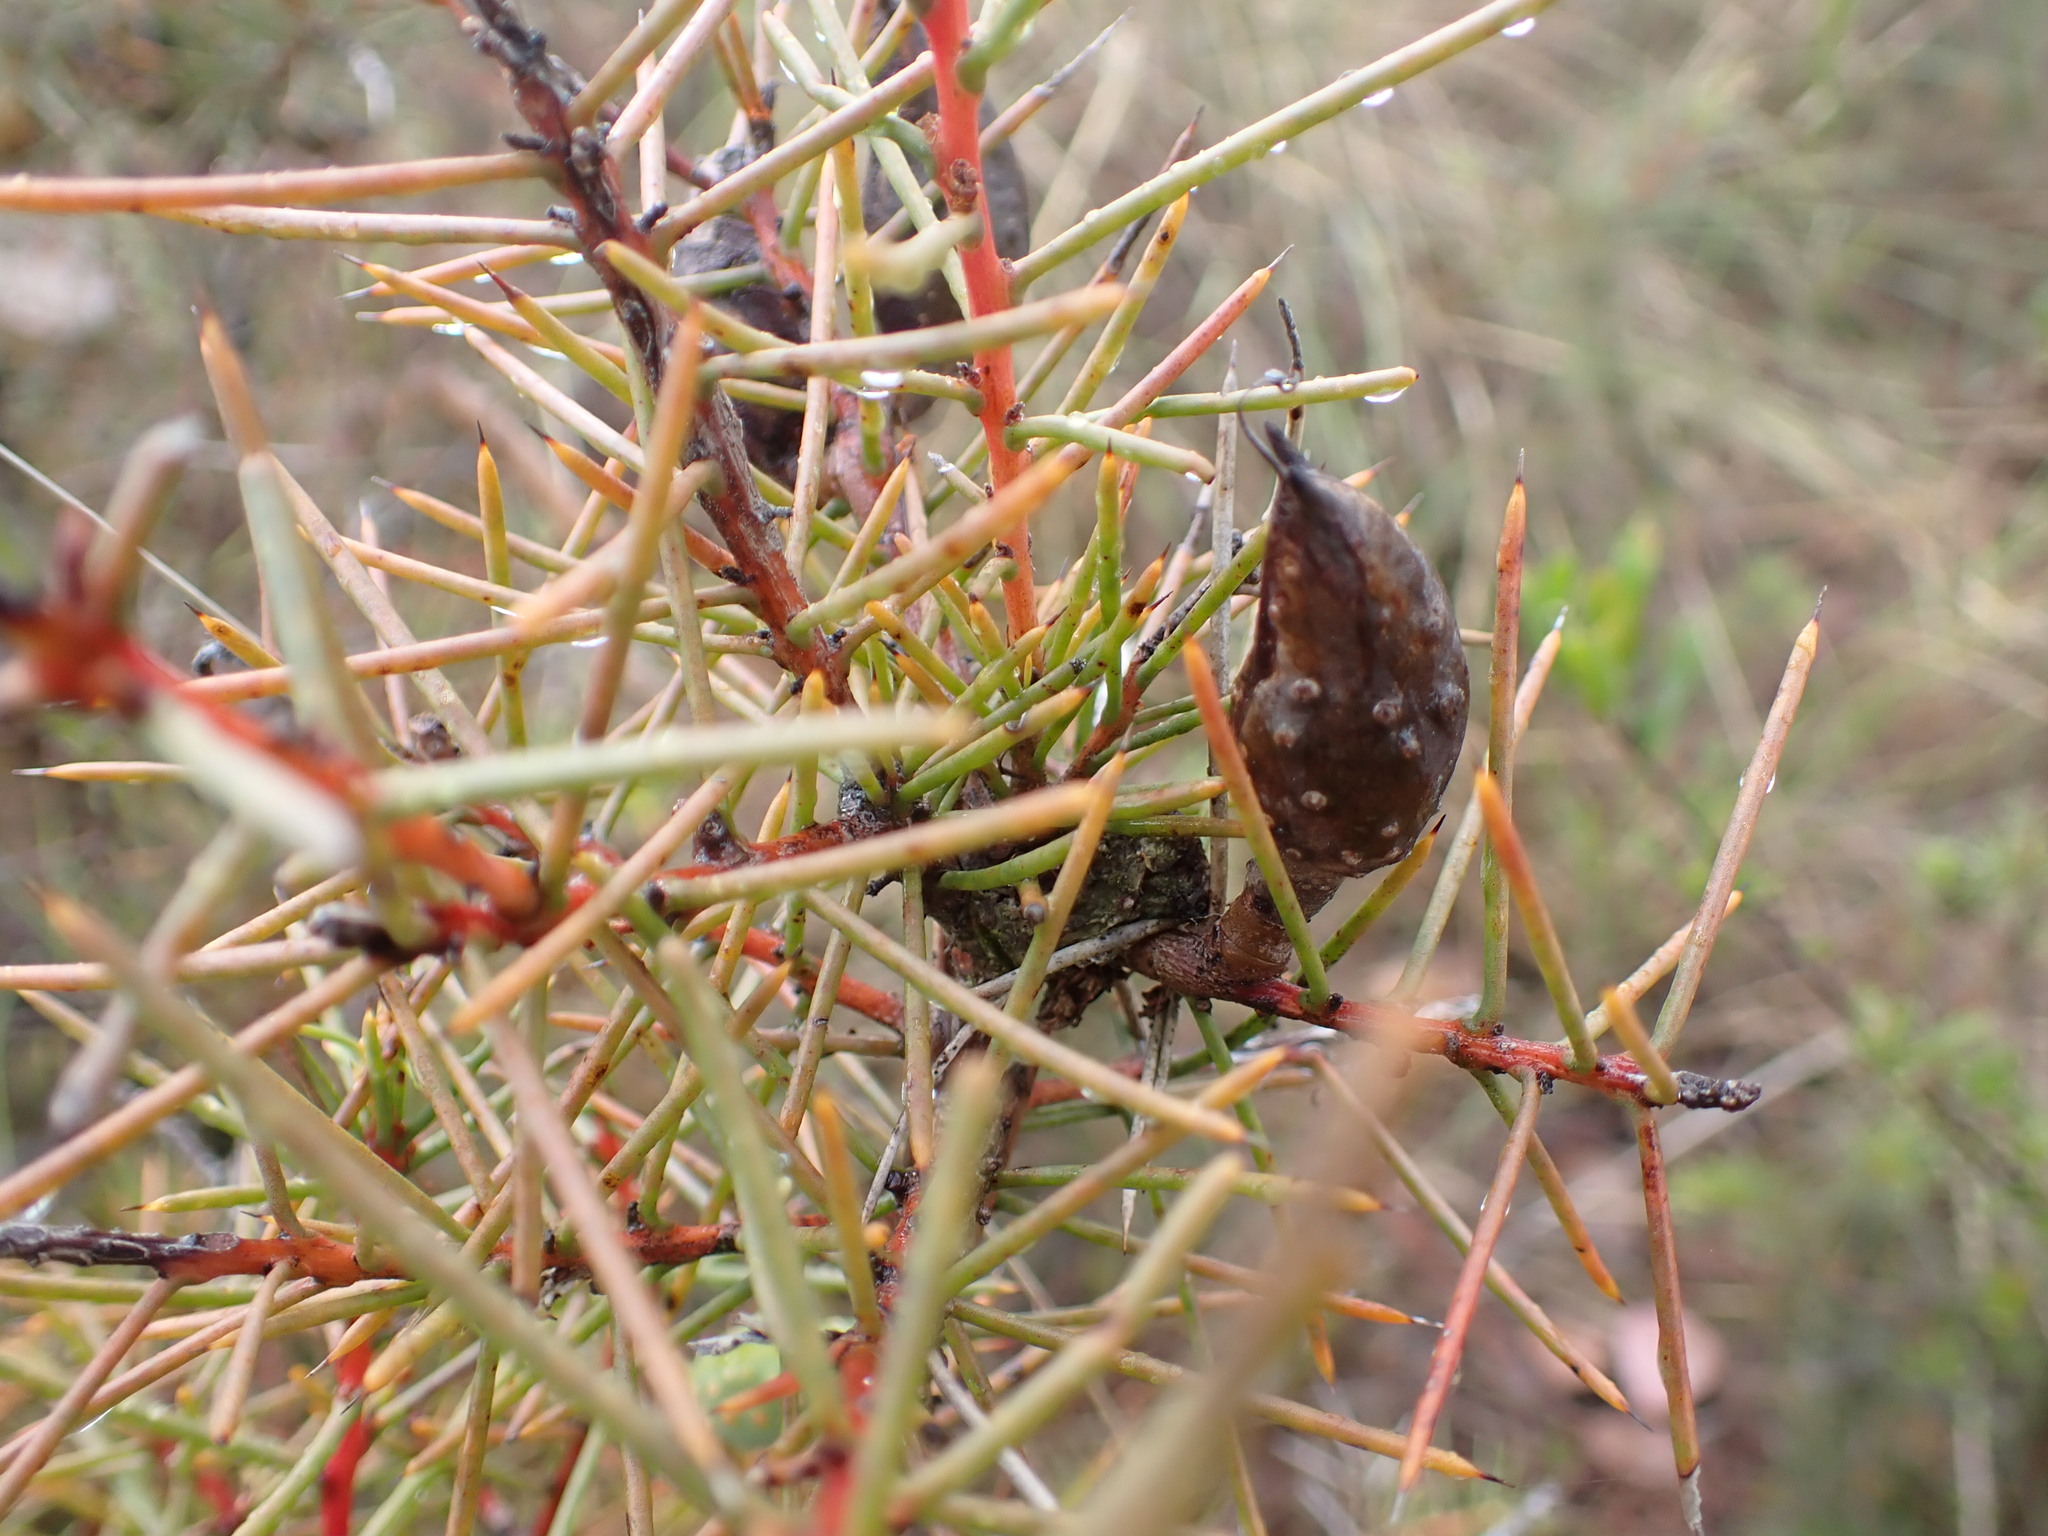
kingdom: Plantae
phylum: Tracheophyta
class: Magnoliopsida
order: Proteales
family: Proteaceae
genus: Hakea
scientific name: Hakea decurrens
